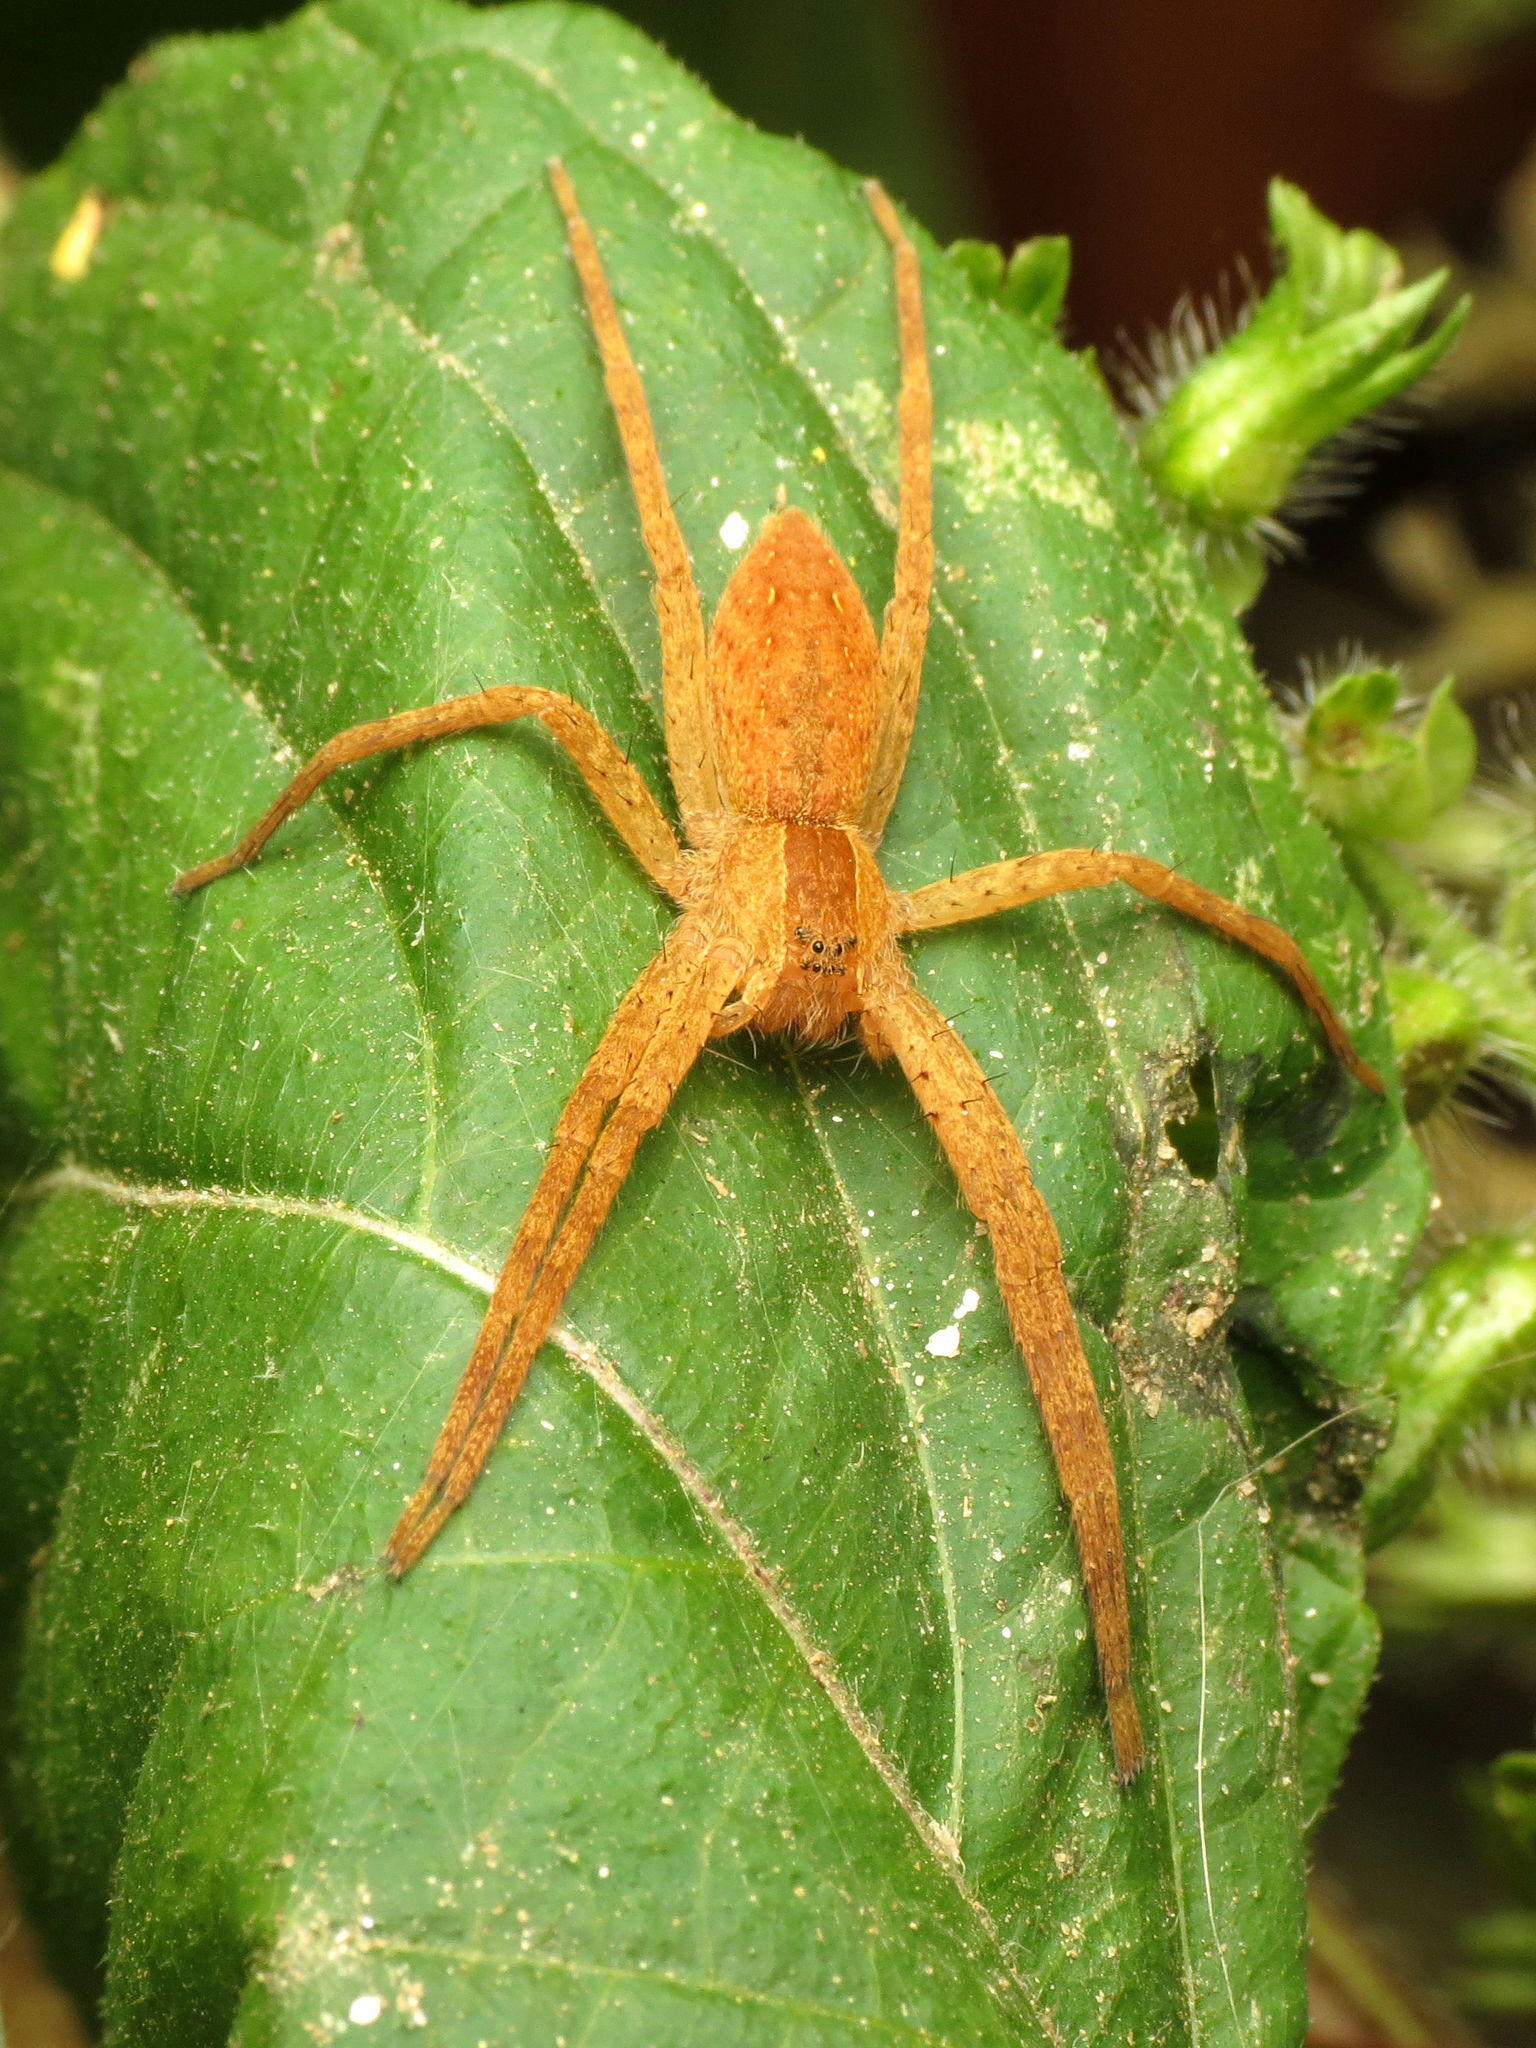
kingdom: Animalia
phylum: Arthropoda
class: Arachnida
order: Araneae
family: Pisauridae
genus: Pisaurina
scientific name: Pisaurina mira
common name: American nursery web spider
